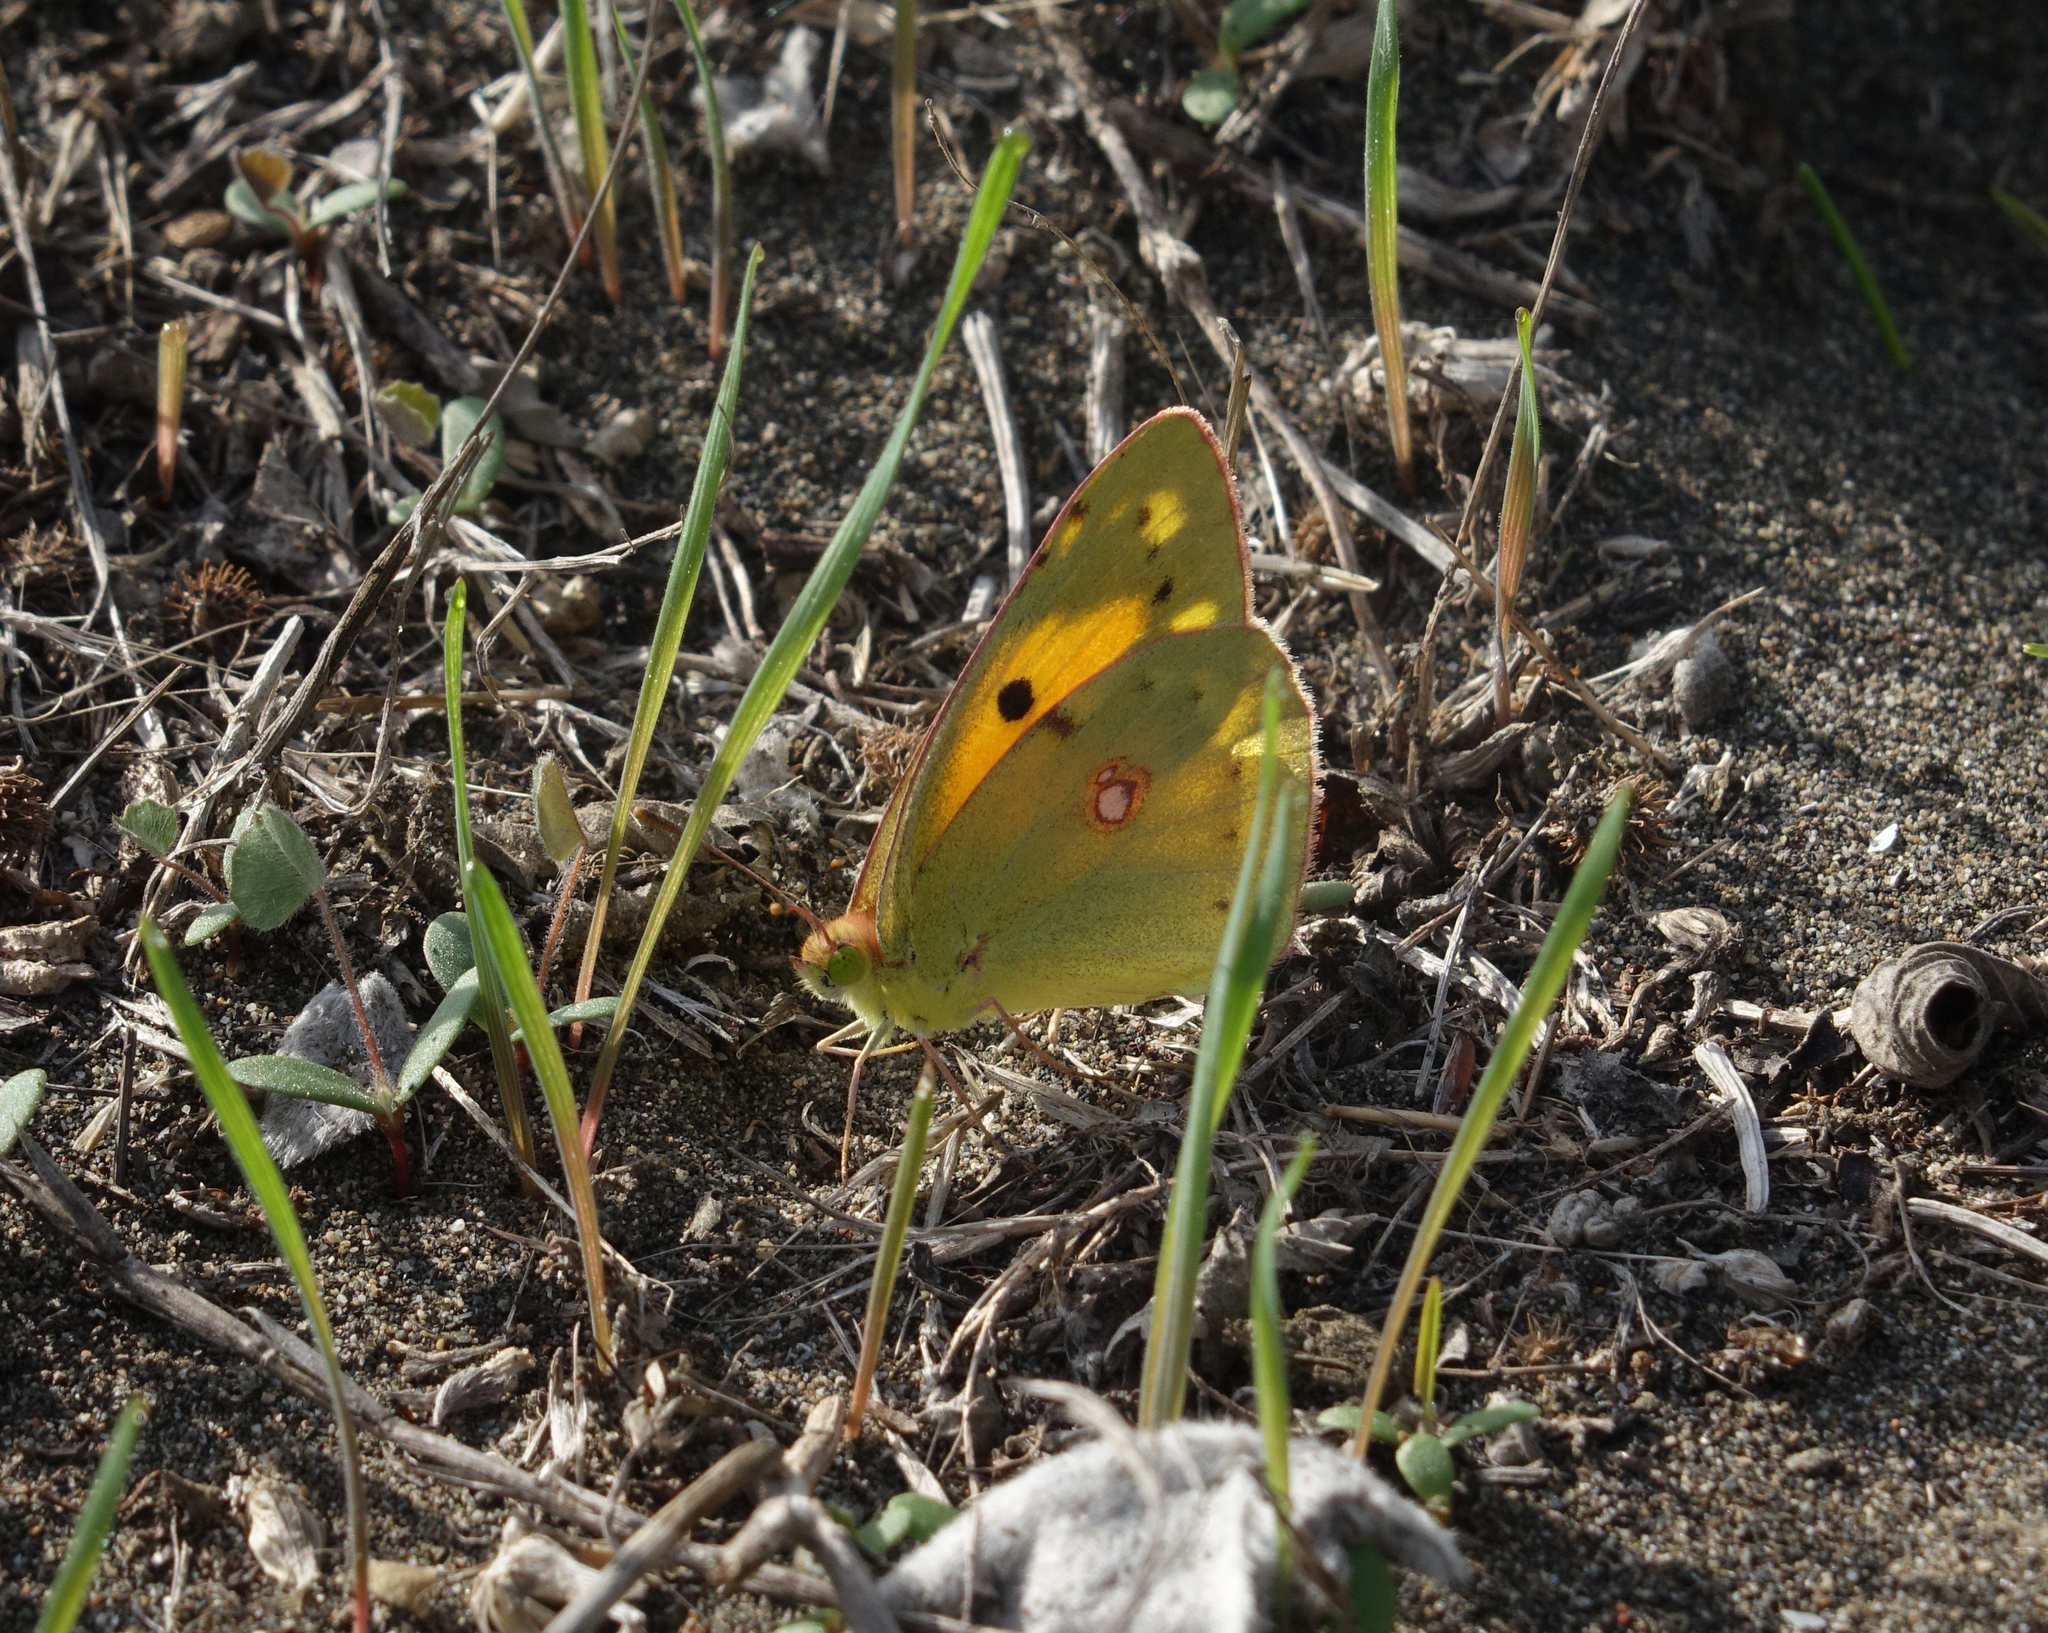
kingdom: Animalia
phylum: Arthropoda
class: Insecta
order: Lepidoptera
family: Pieridae
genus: Colias
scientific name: Colias croceus
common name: Clouded yellow
